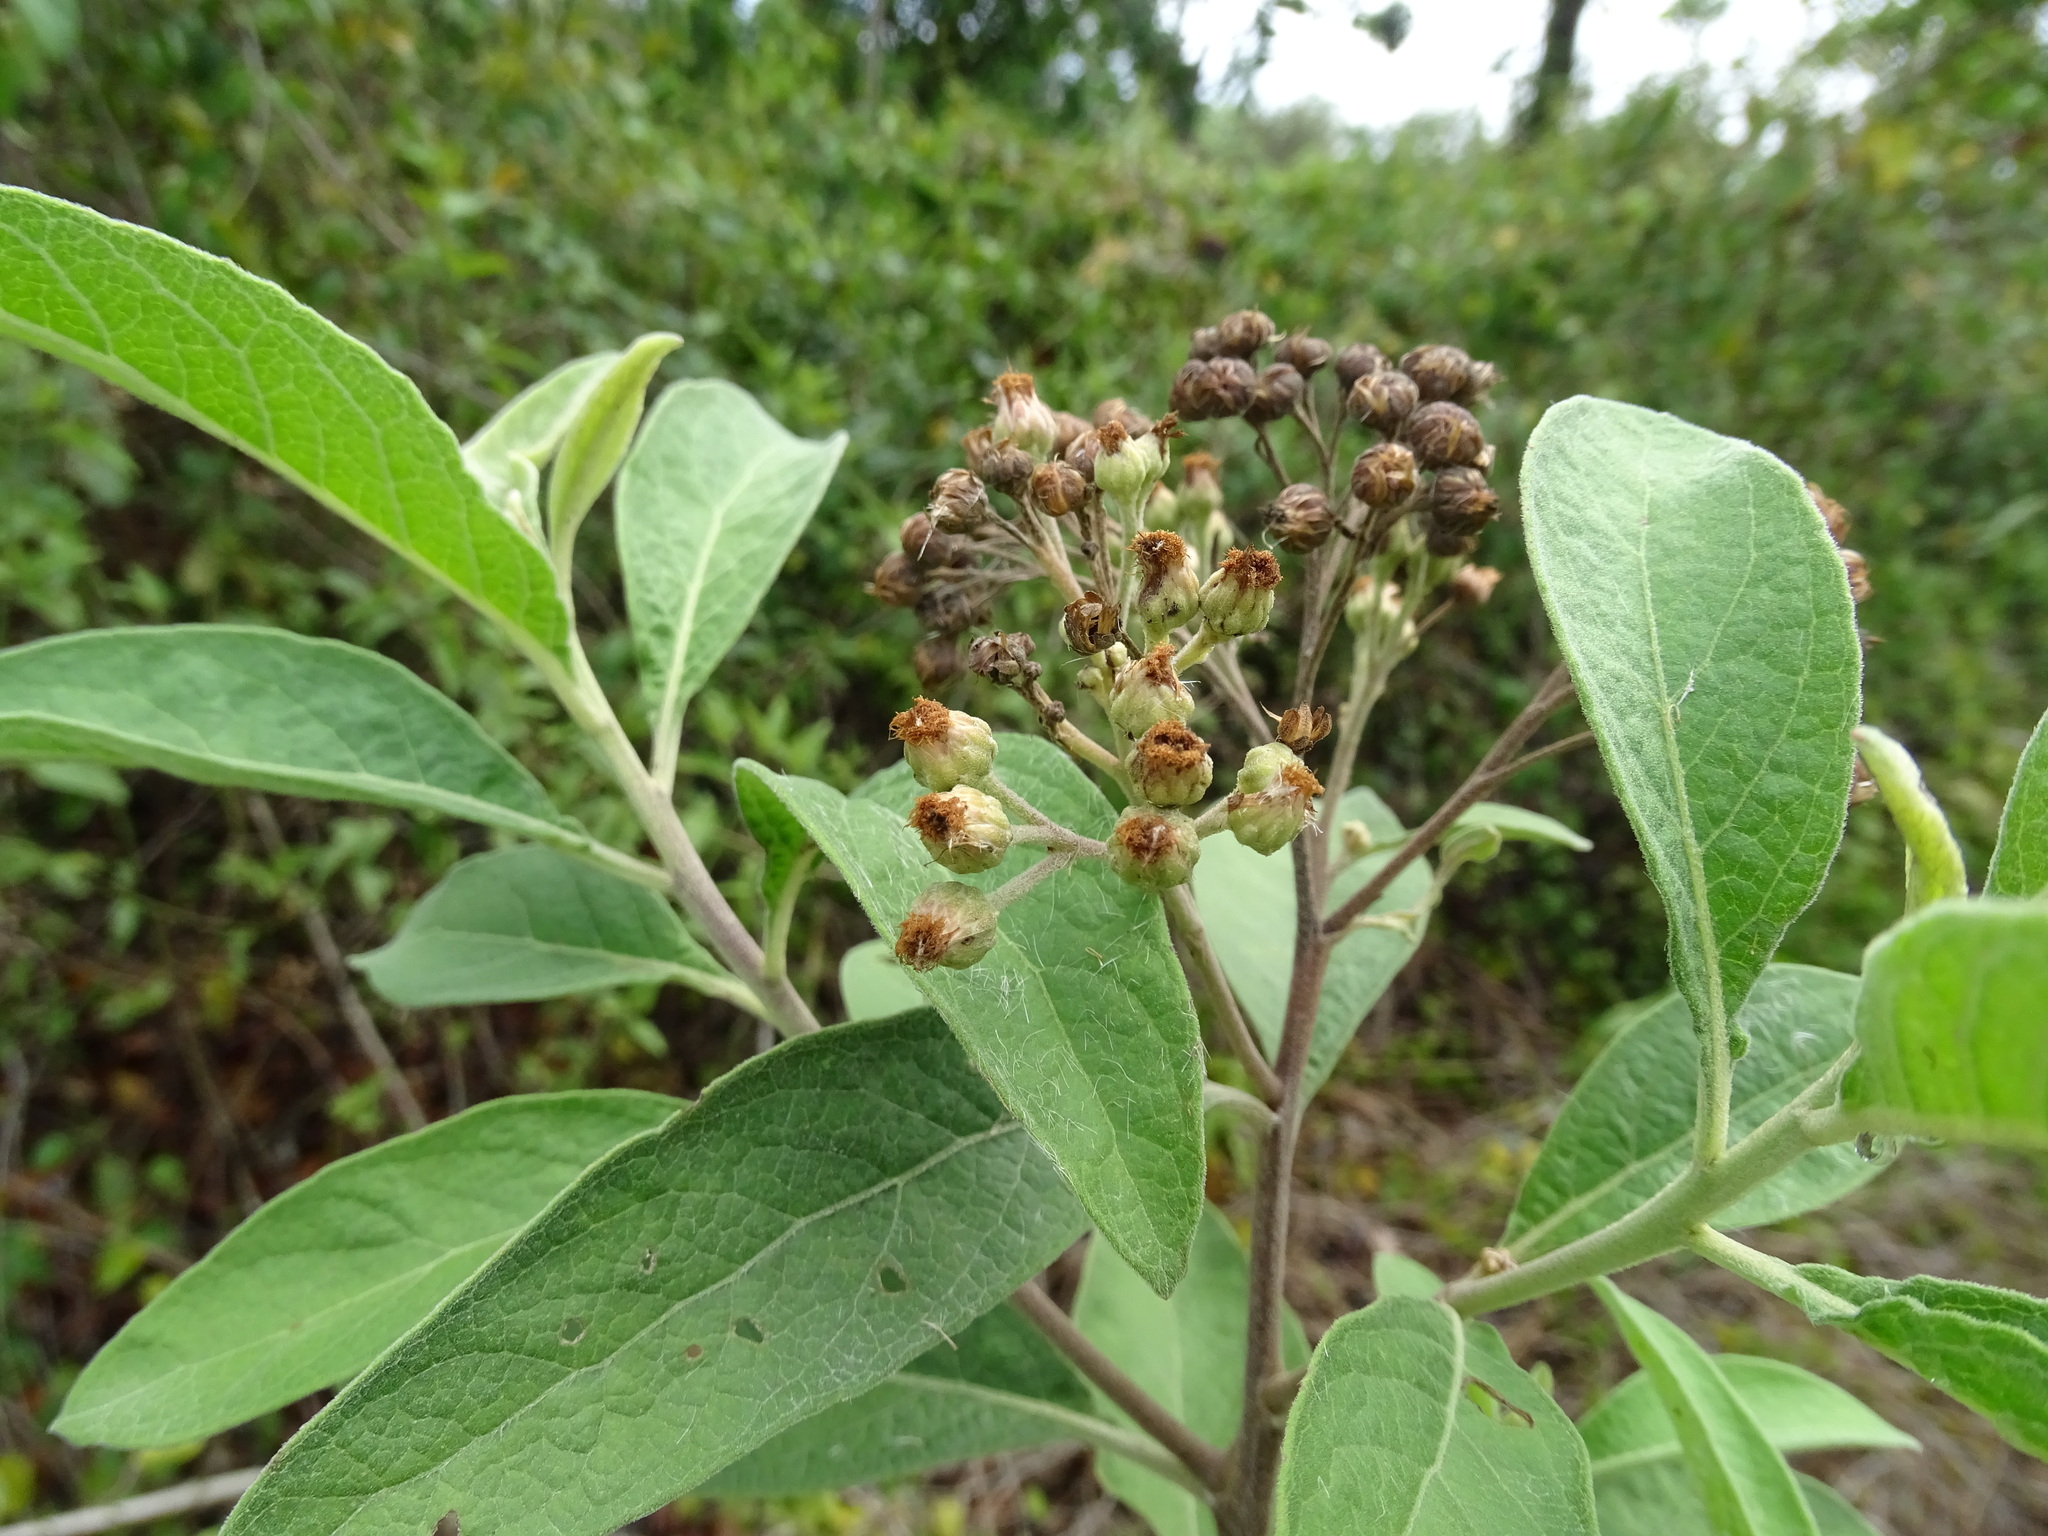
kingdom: Plantae
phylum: Tracheophyta
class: Magnoliopsida
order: Asterales
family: Asteraceae
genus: Pluchea
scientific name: Pluchea carolinensis
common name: Marsh fleabane
